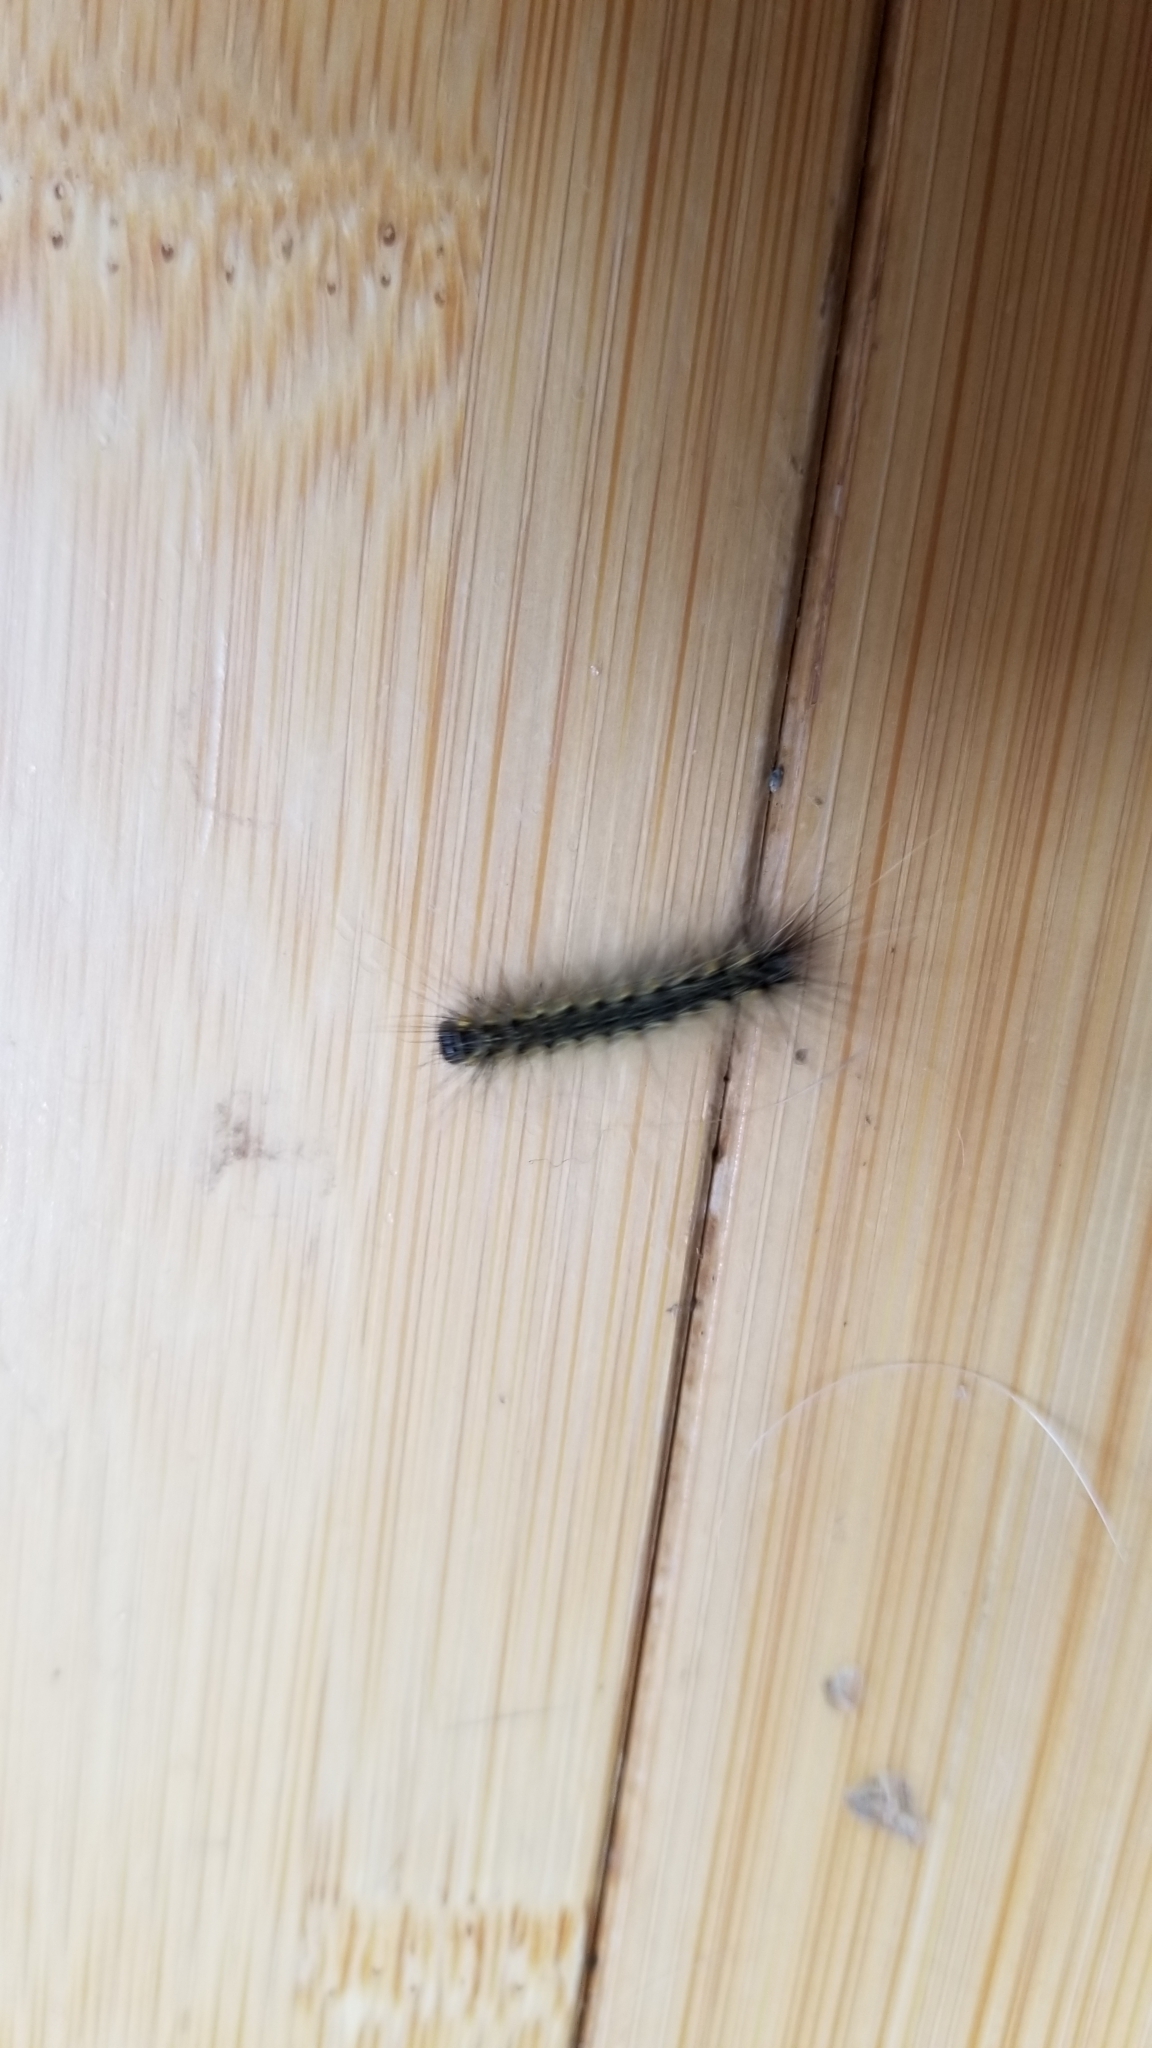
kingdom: Animalia
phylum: Arthropoda
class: Insecta
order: Lepidoptera
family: Erebidae
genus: Hyphantria
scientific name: Hyphantria cunea
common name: American white moth
